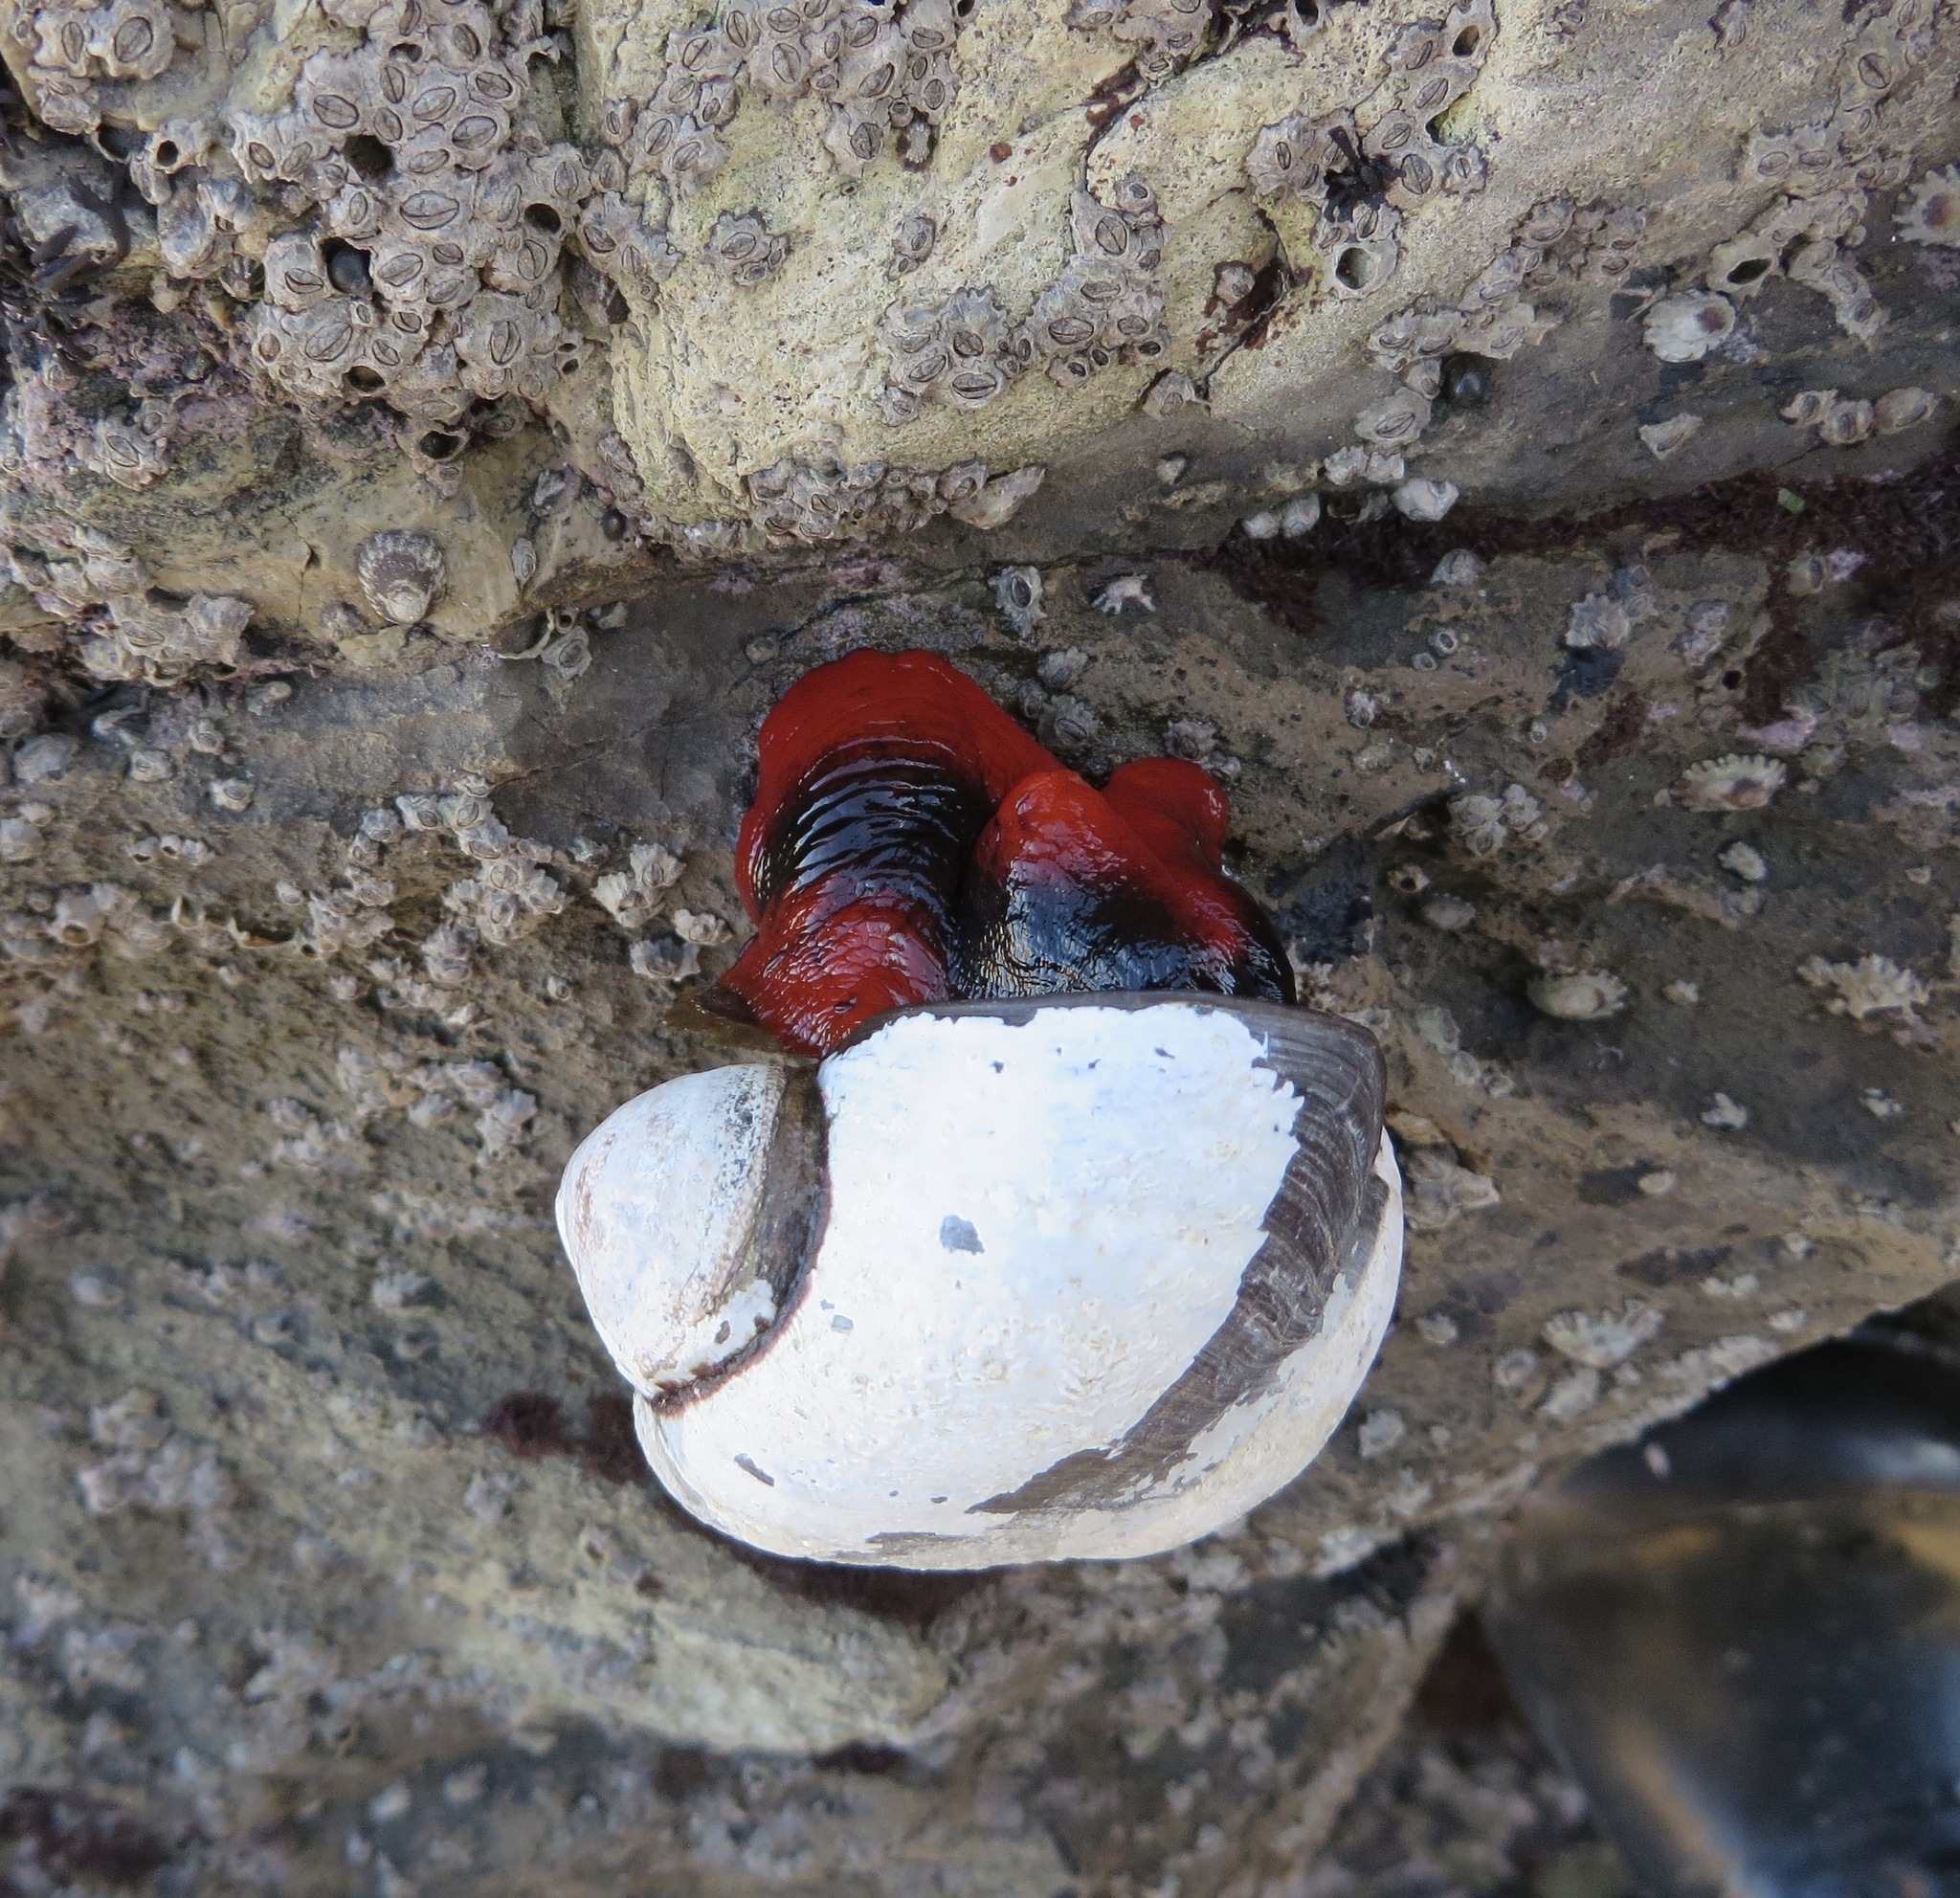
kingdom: Animalia
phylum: Mollusca
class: Gastropoda
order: Trochida
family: Tegulidae
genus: Norrisia
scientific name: Norrisia norrisii
